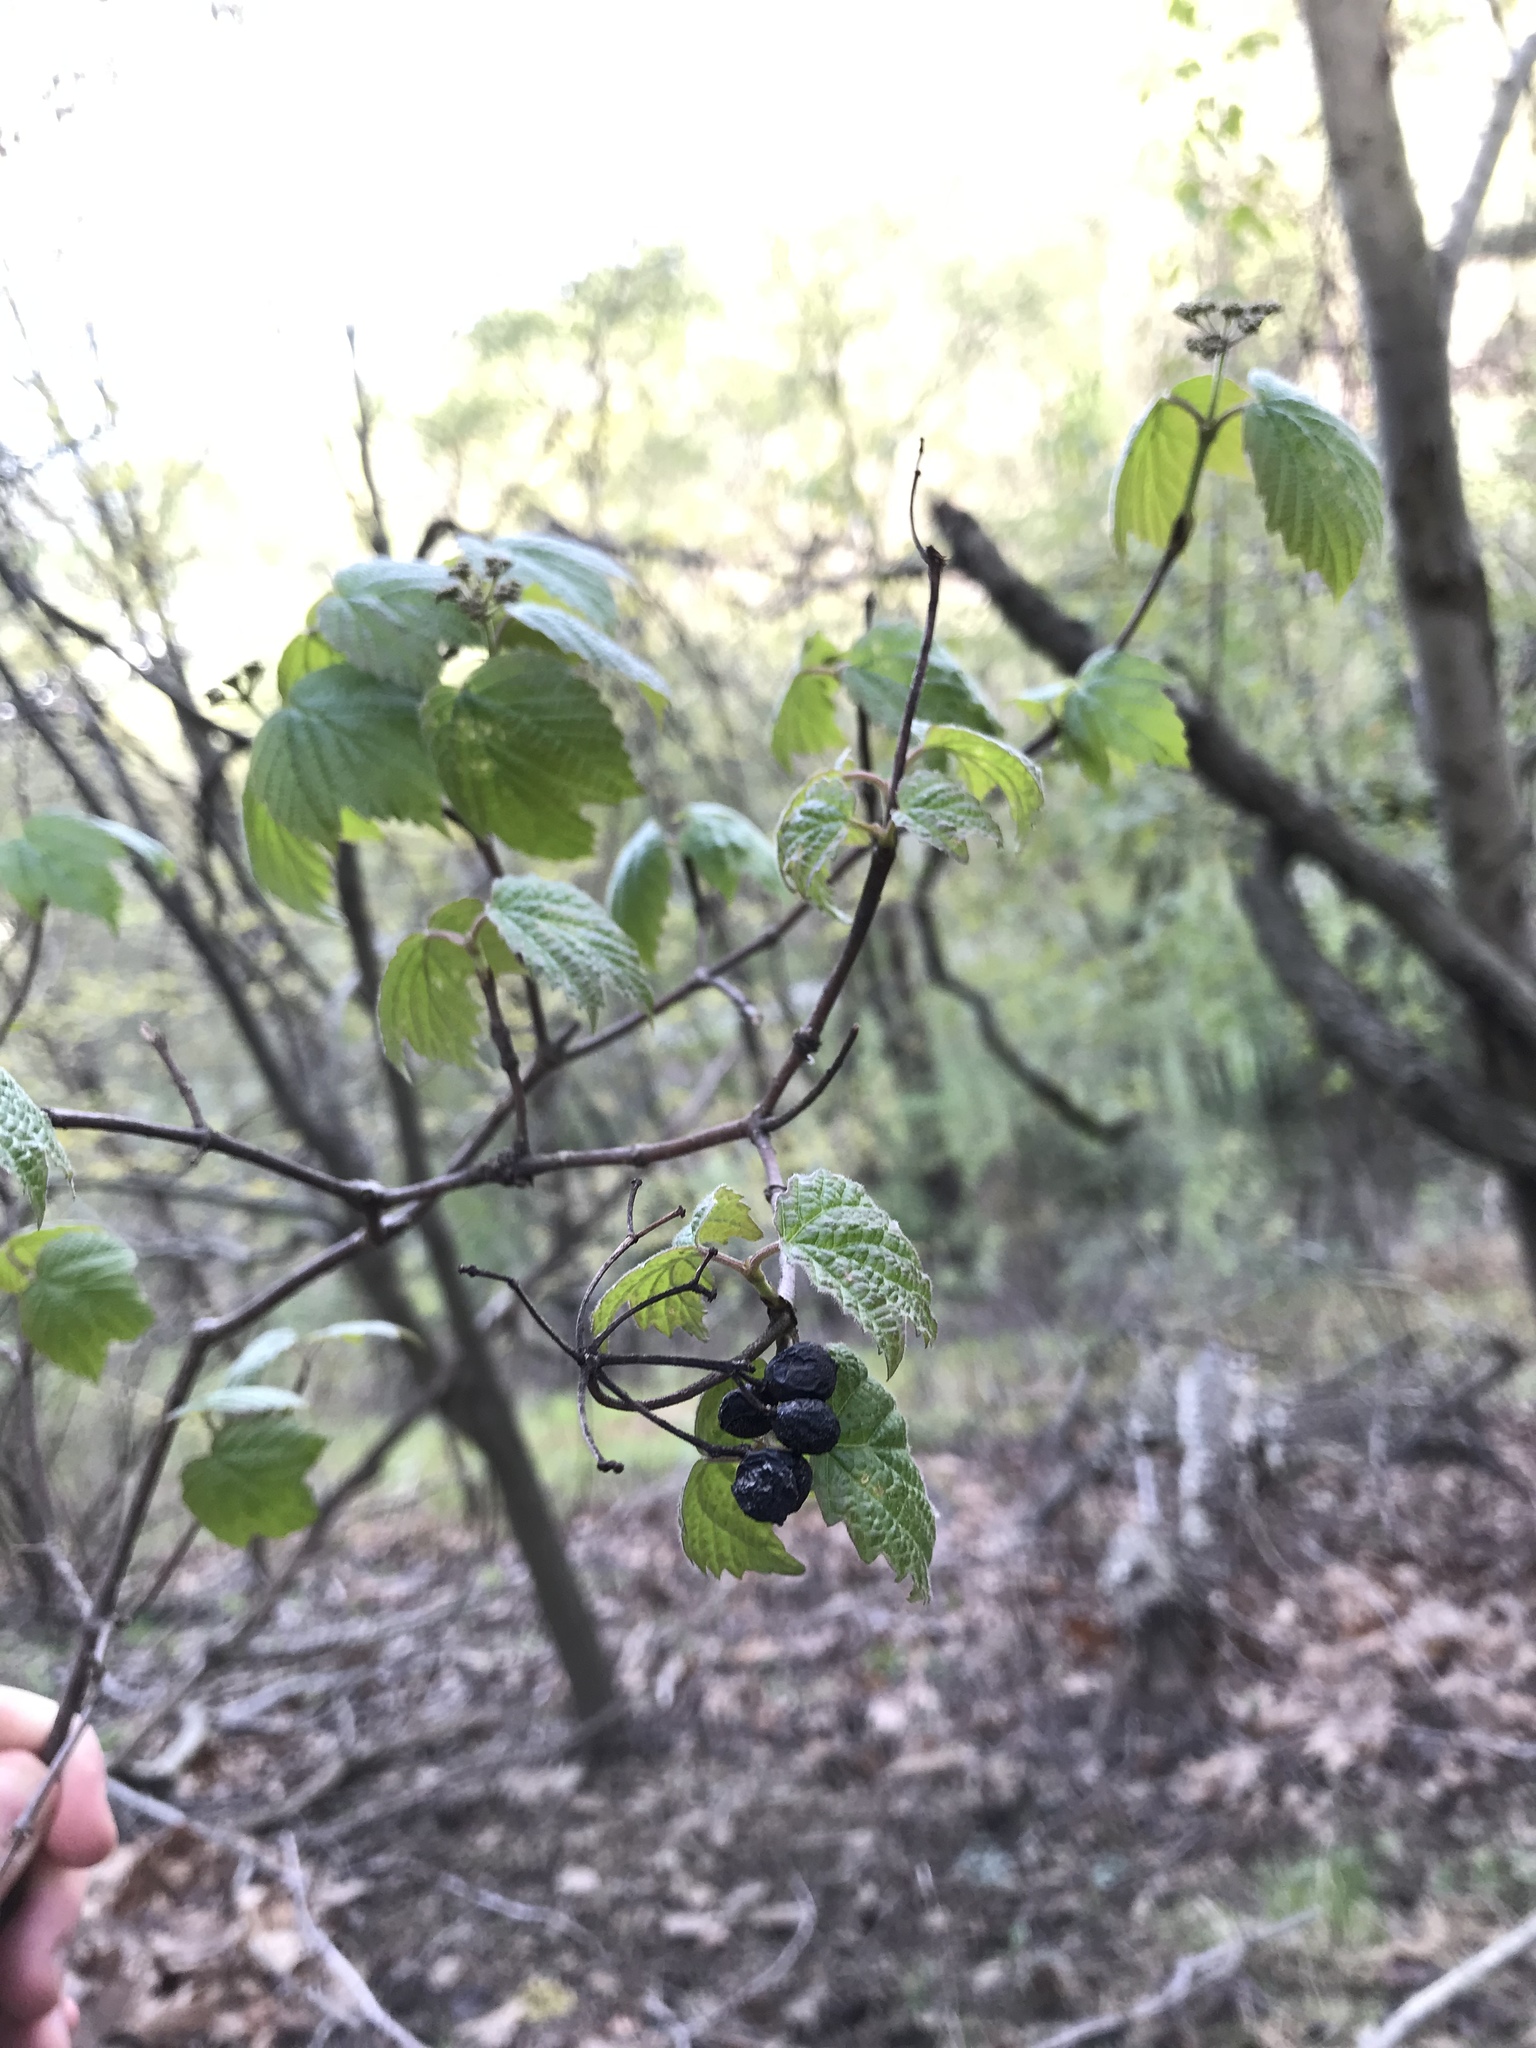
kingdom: Plantae
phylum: Tracheophyta
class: Magnoliopsida
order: Dipsacales
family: Viburnaceae
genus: Viburnum
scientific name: Viburnum acerifolium
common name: Dockmackie
